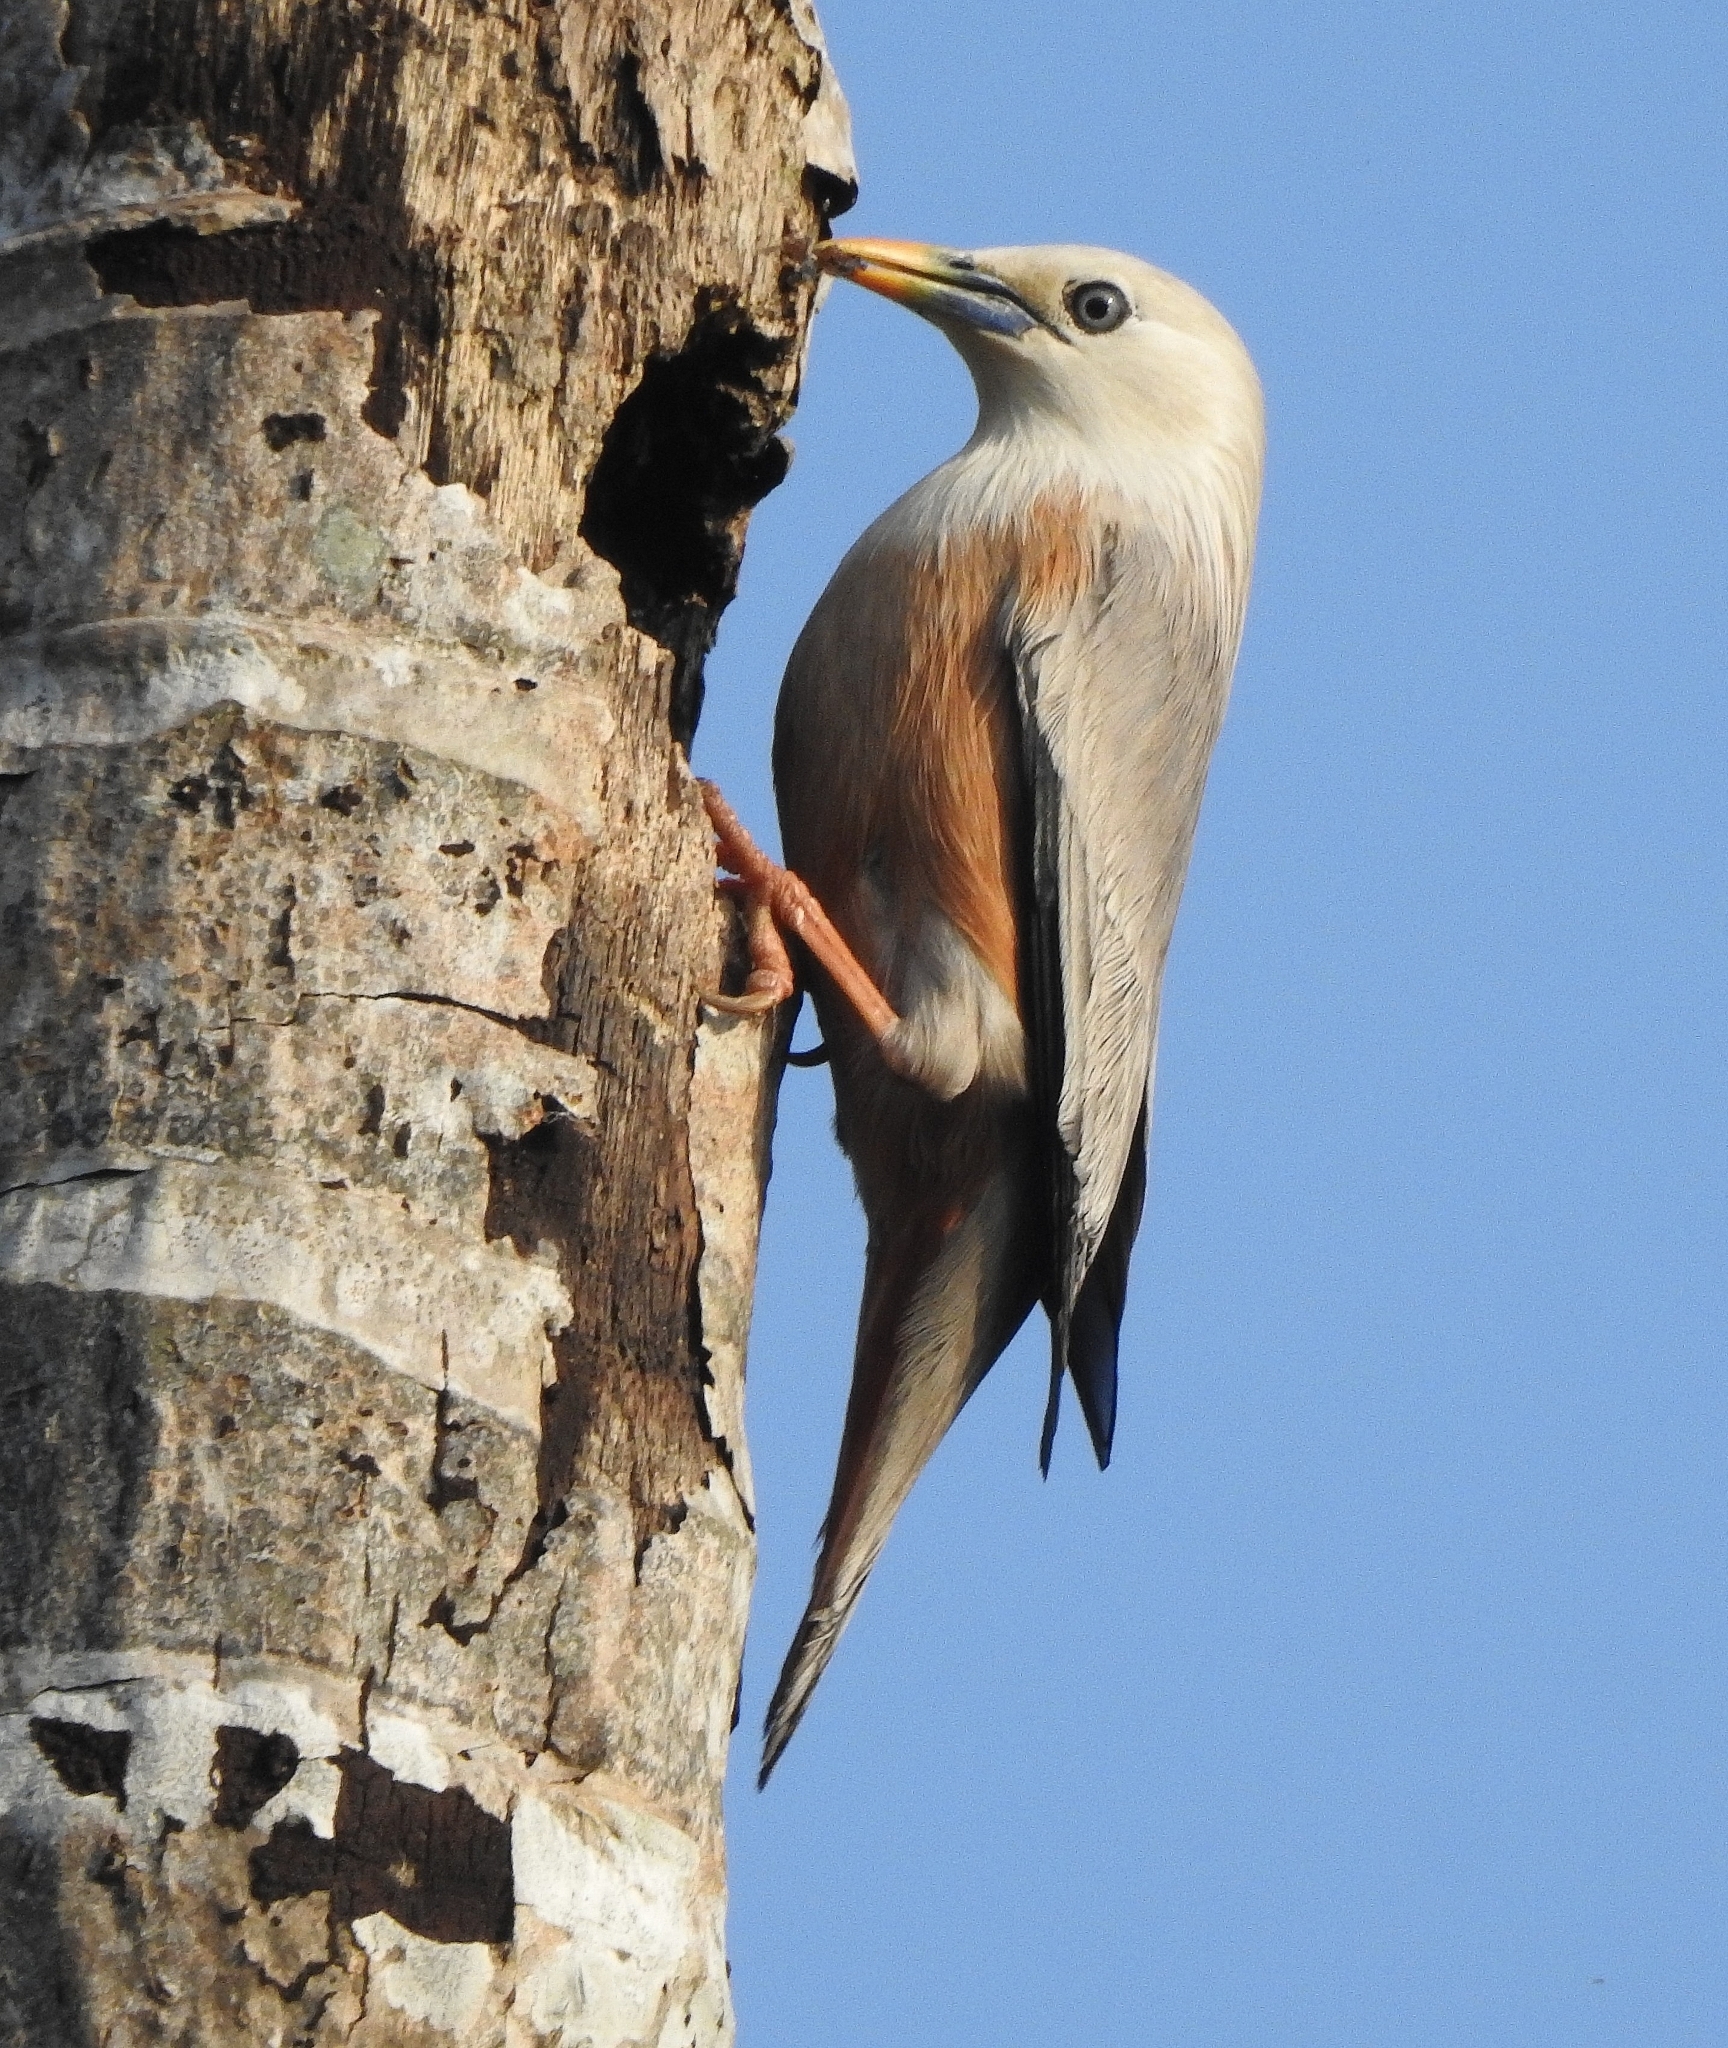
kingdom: Animalia
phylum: Chordata
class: Aves
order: Passeriformes
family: Sturnidae
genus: Sturnia
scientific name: Sturnia blythii
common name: Malabar starling
